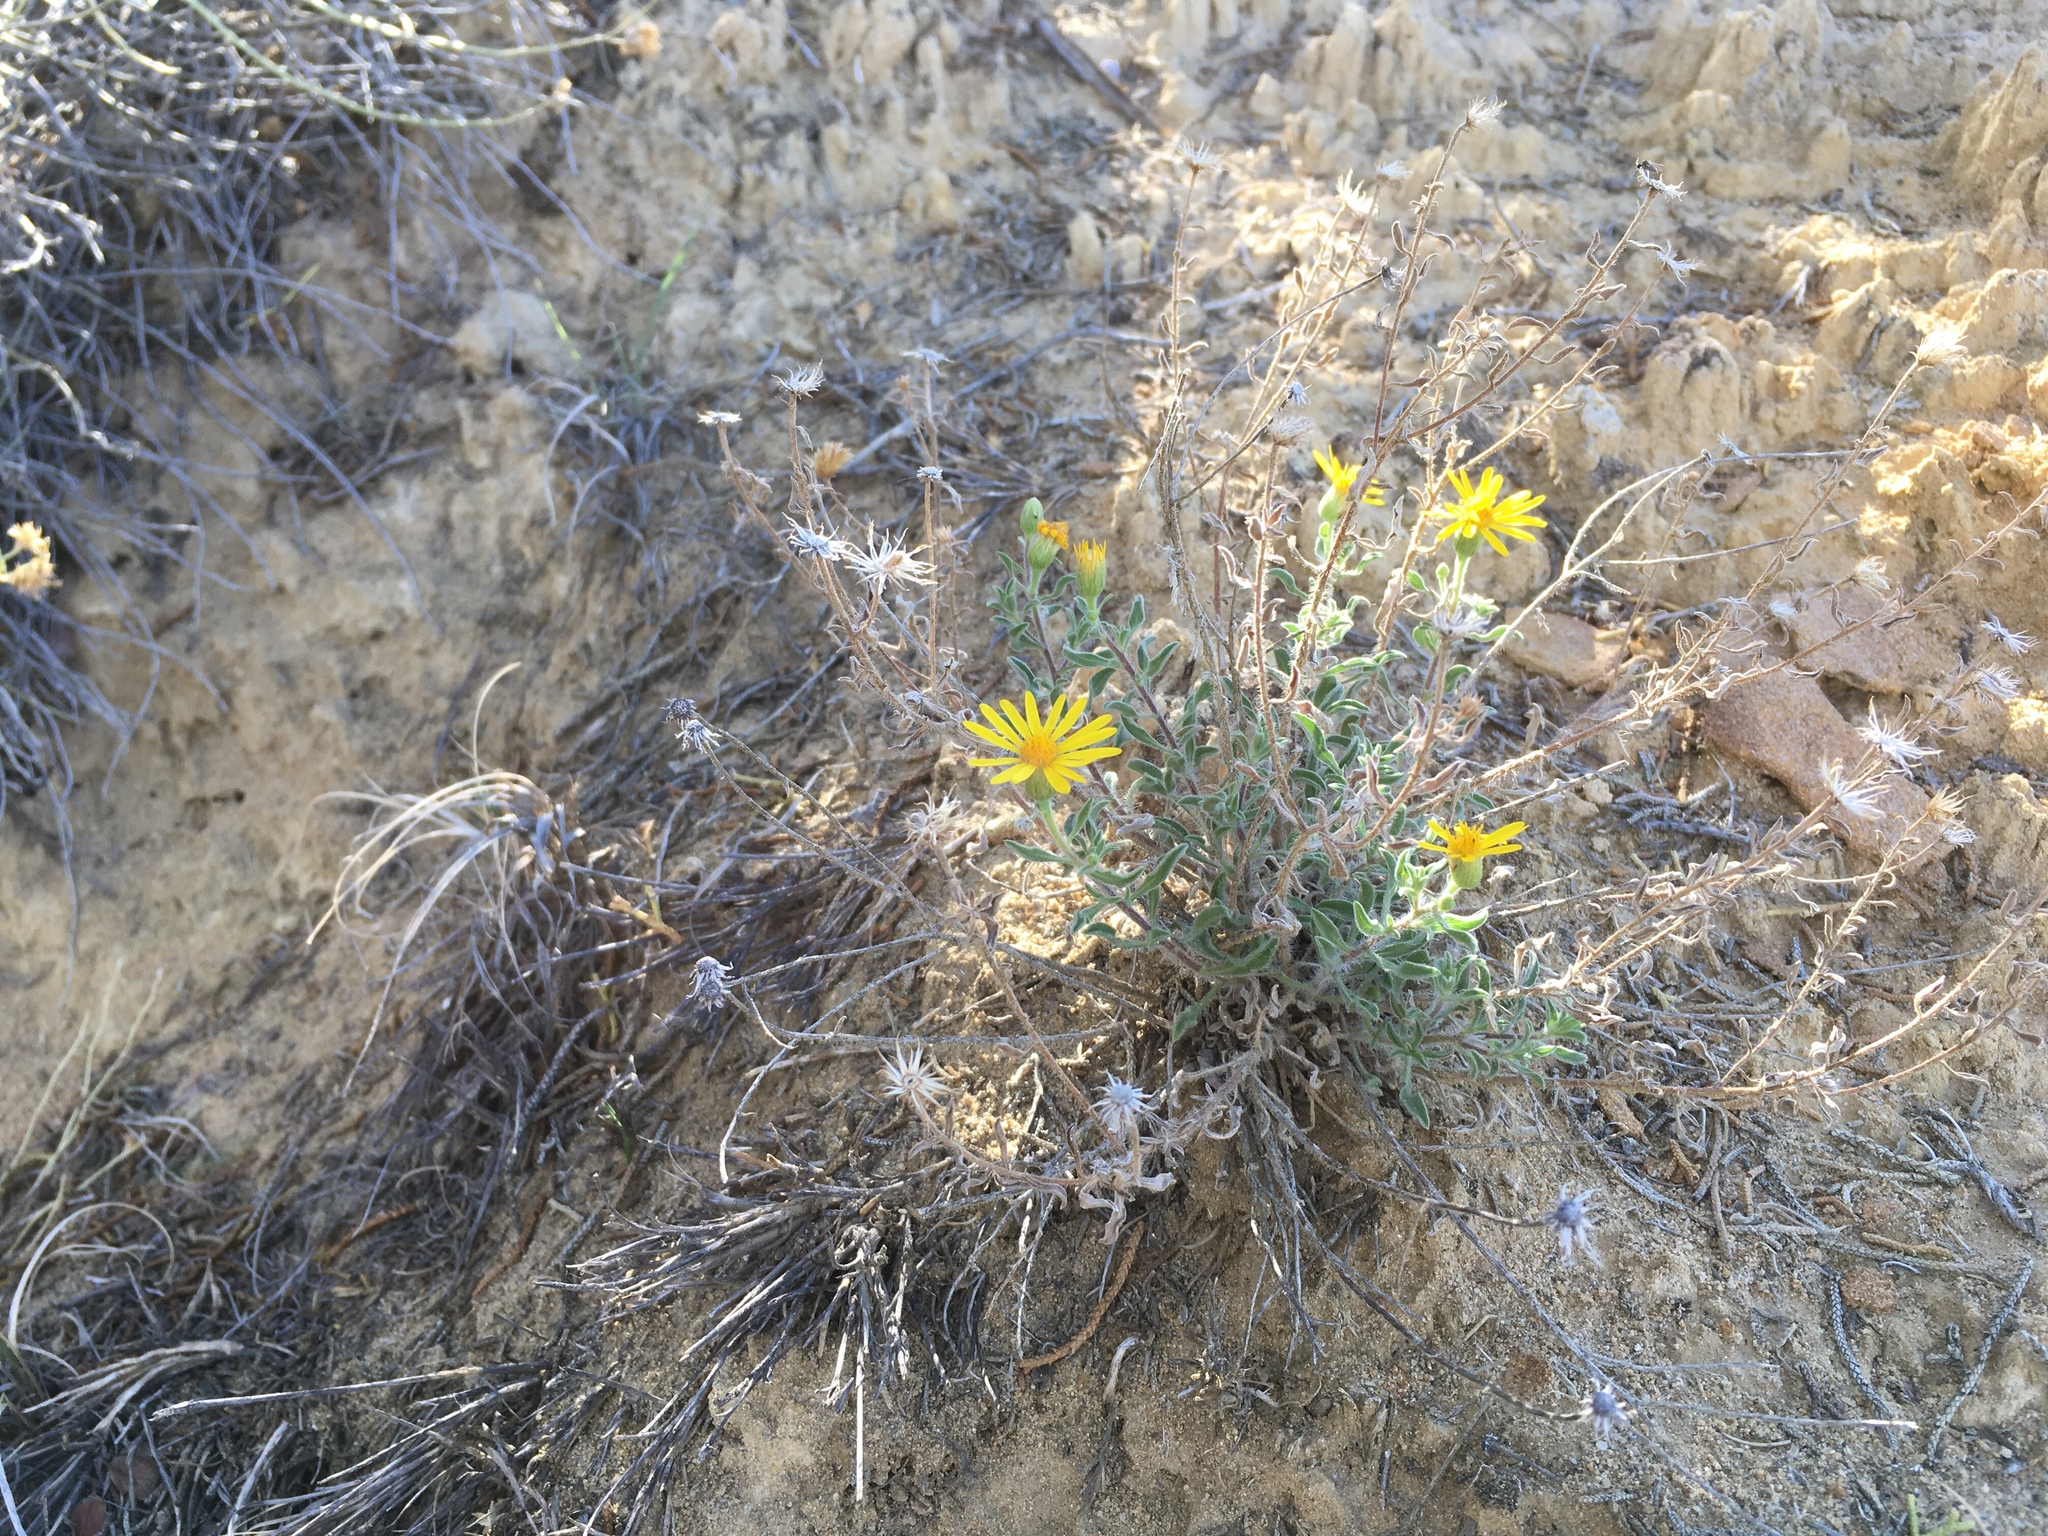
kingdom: Plantae
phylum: Tracheophyta
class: Magnoliopsida
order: Asterales
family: Asteraceae
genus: Heterotheca
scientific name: Heterotheca hirsutissima
